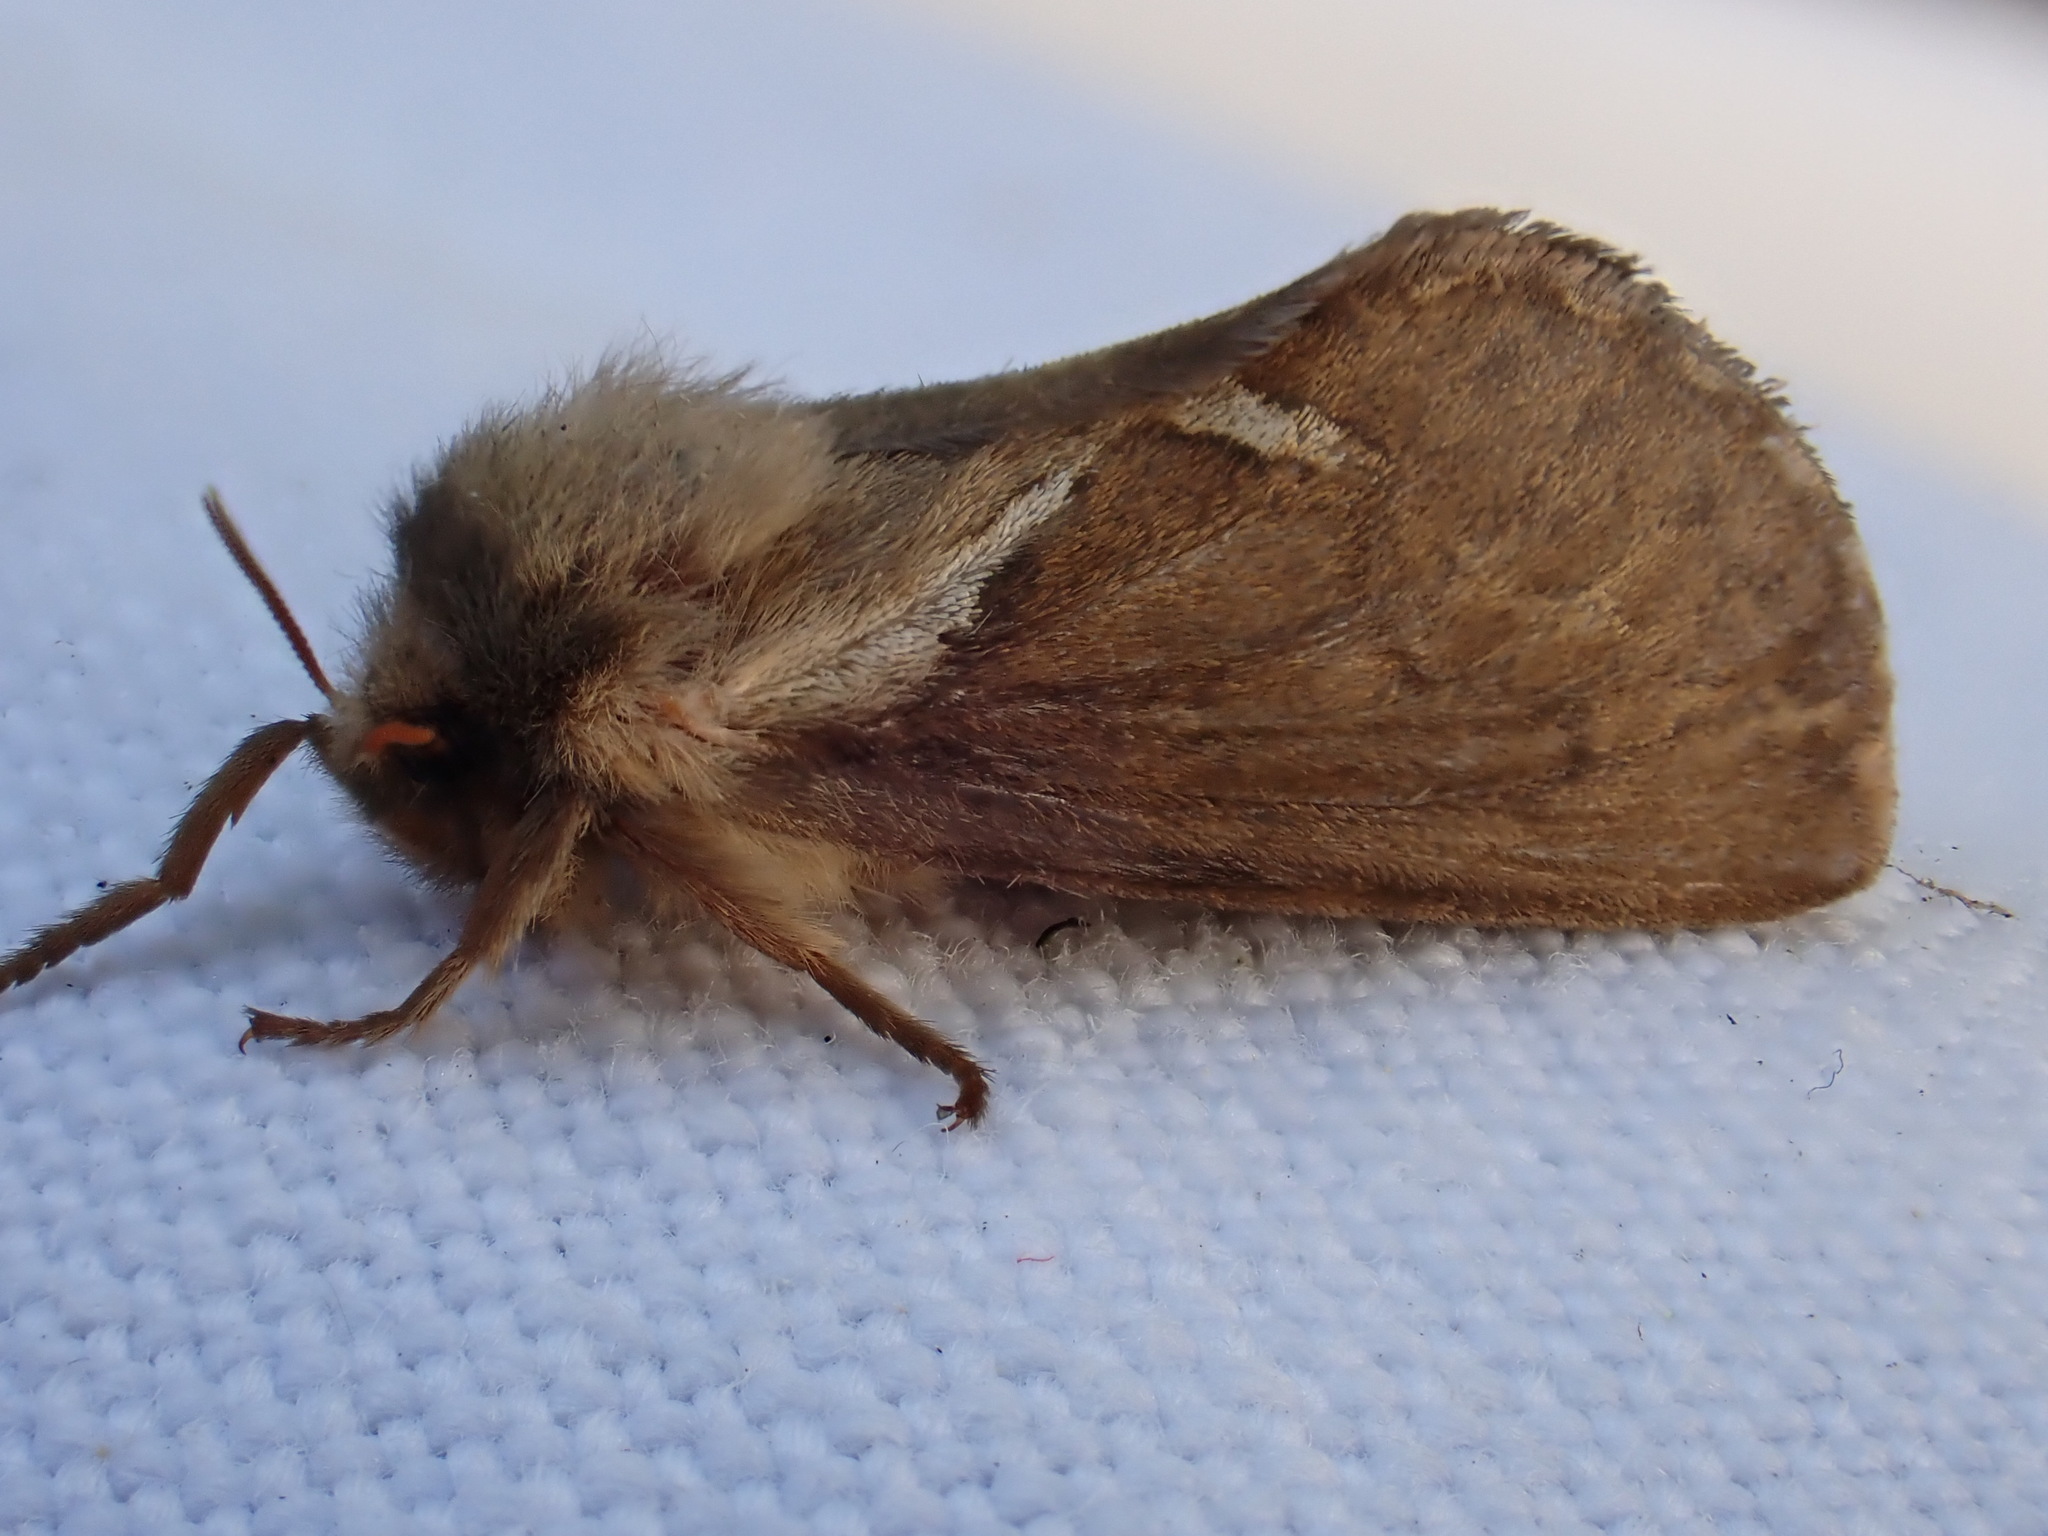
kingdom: Animalia
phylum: Arthropoda
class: Insecta
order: Lepidoptera
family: Hepialidae
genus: Korscheltellus
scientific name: Korscheltellus lupulina
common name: Common swift
